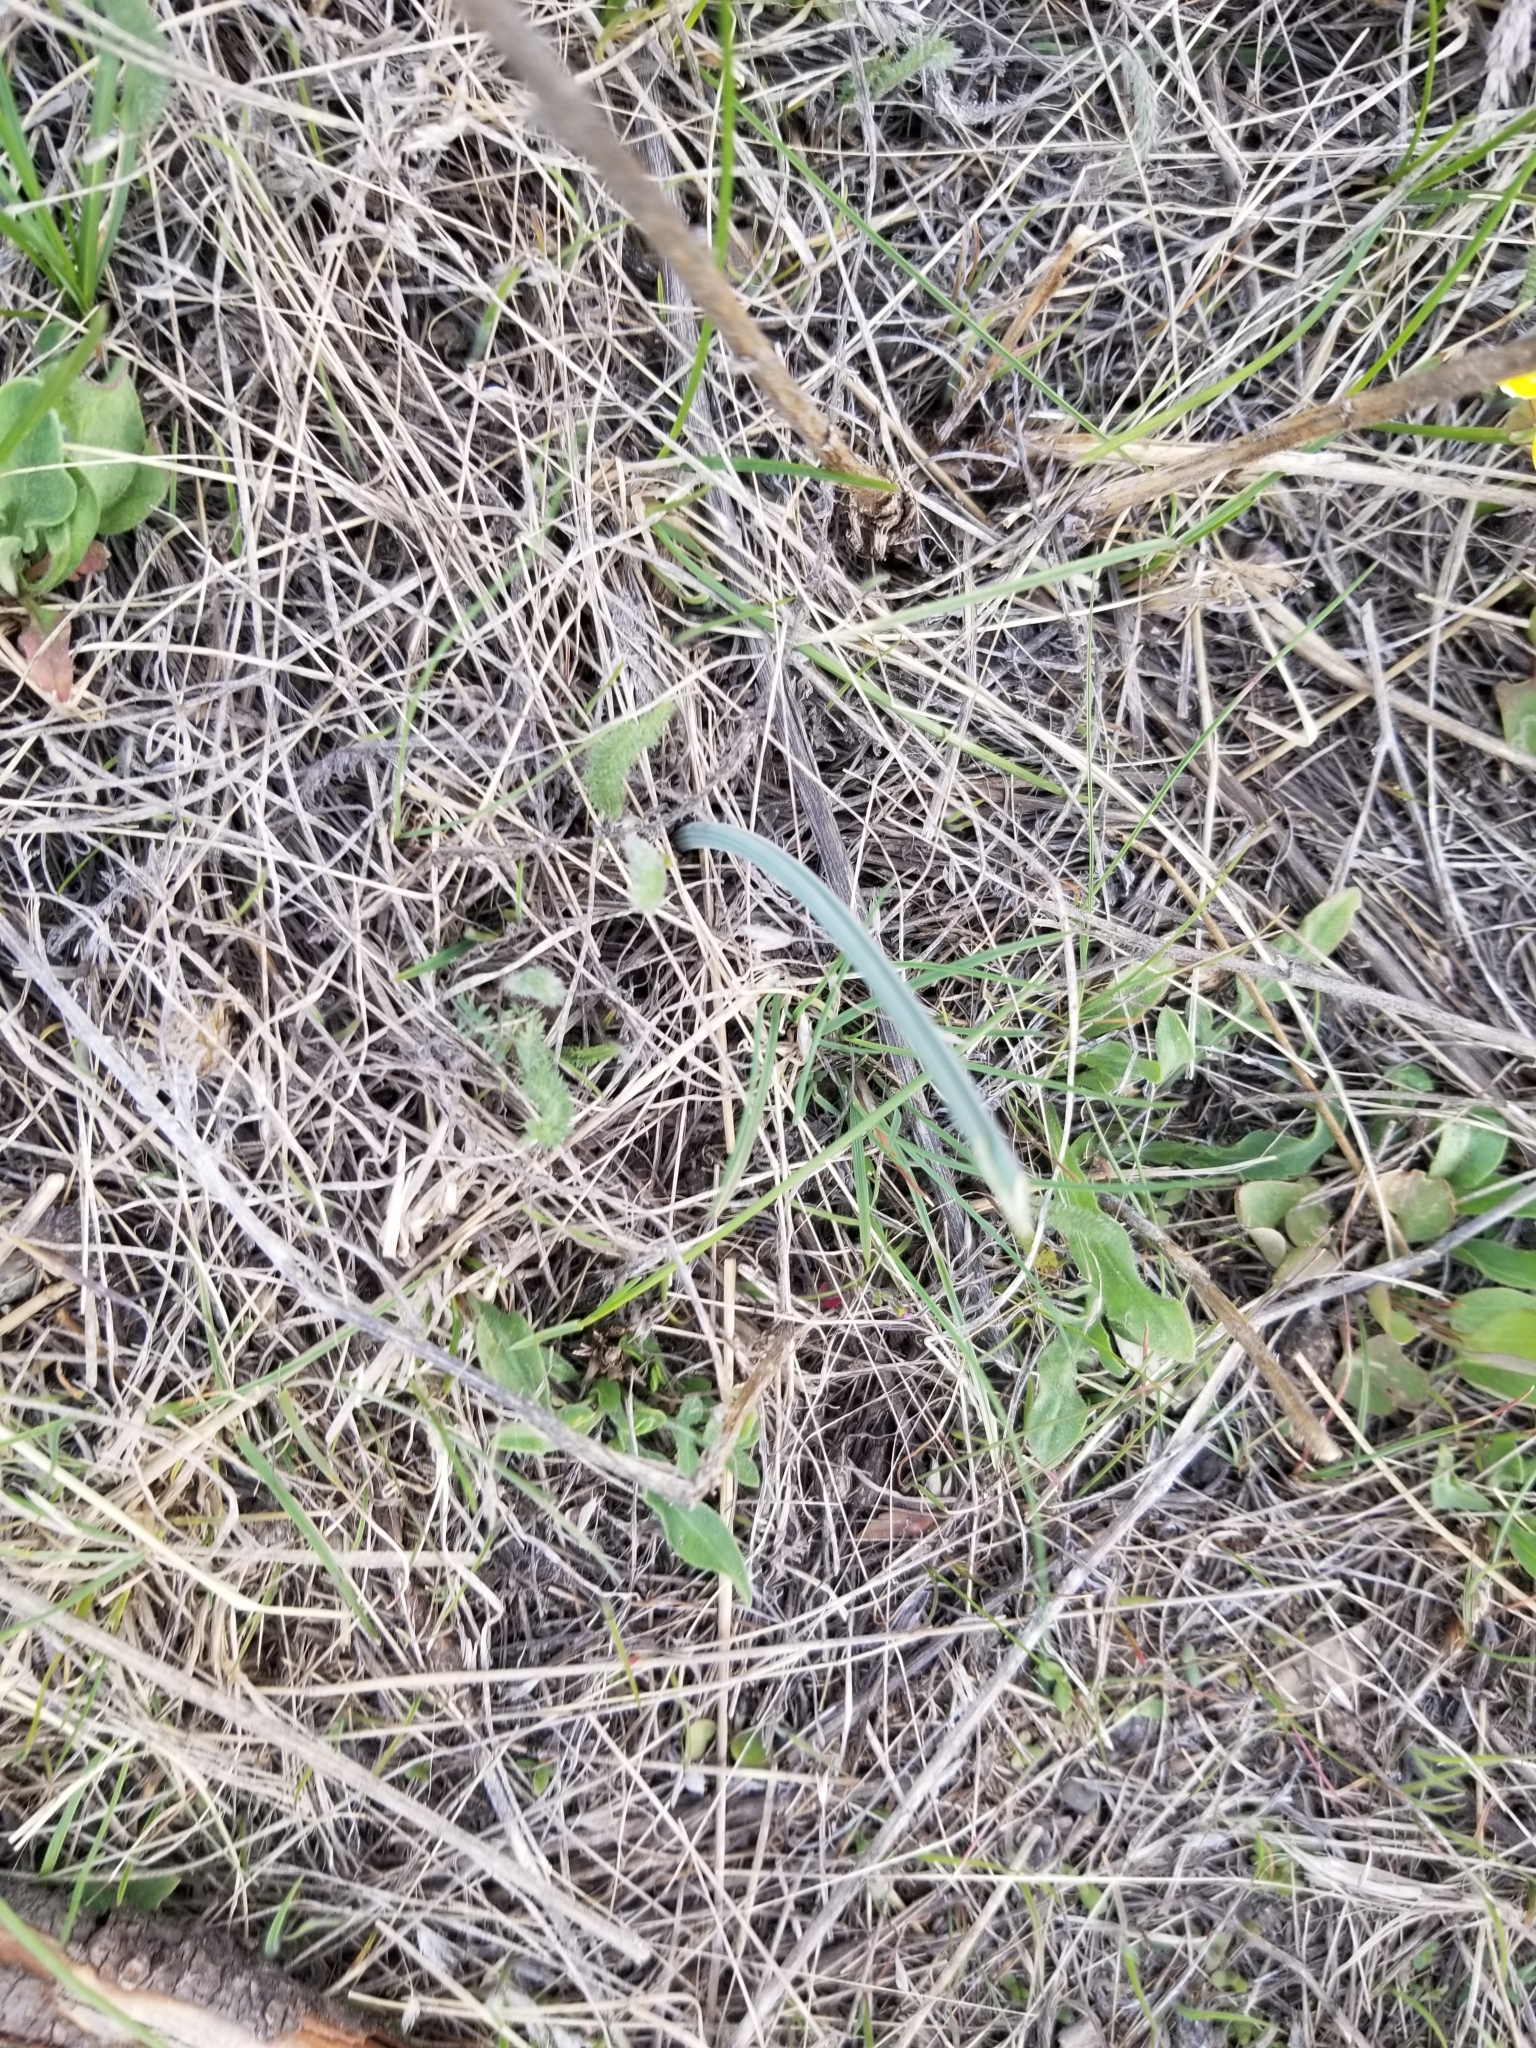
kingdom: Plantae
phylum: Tracheophyta
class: Liliopsida
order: Liliales
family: Liliaceae
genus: Calochortus
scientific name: Calochortus macrocarpus
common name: Green-band mariposa lily
